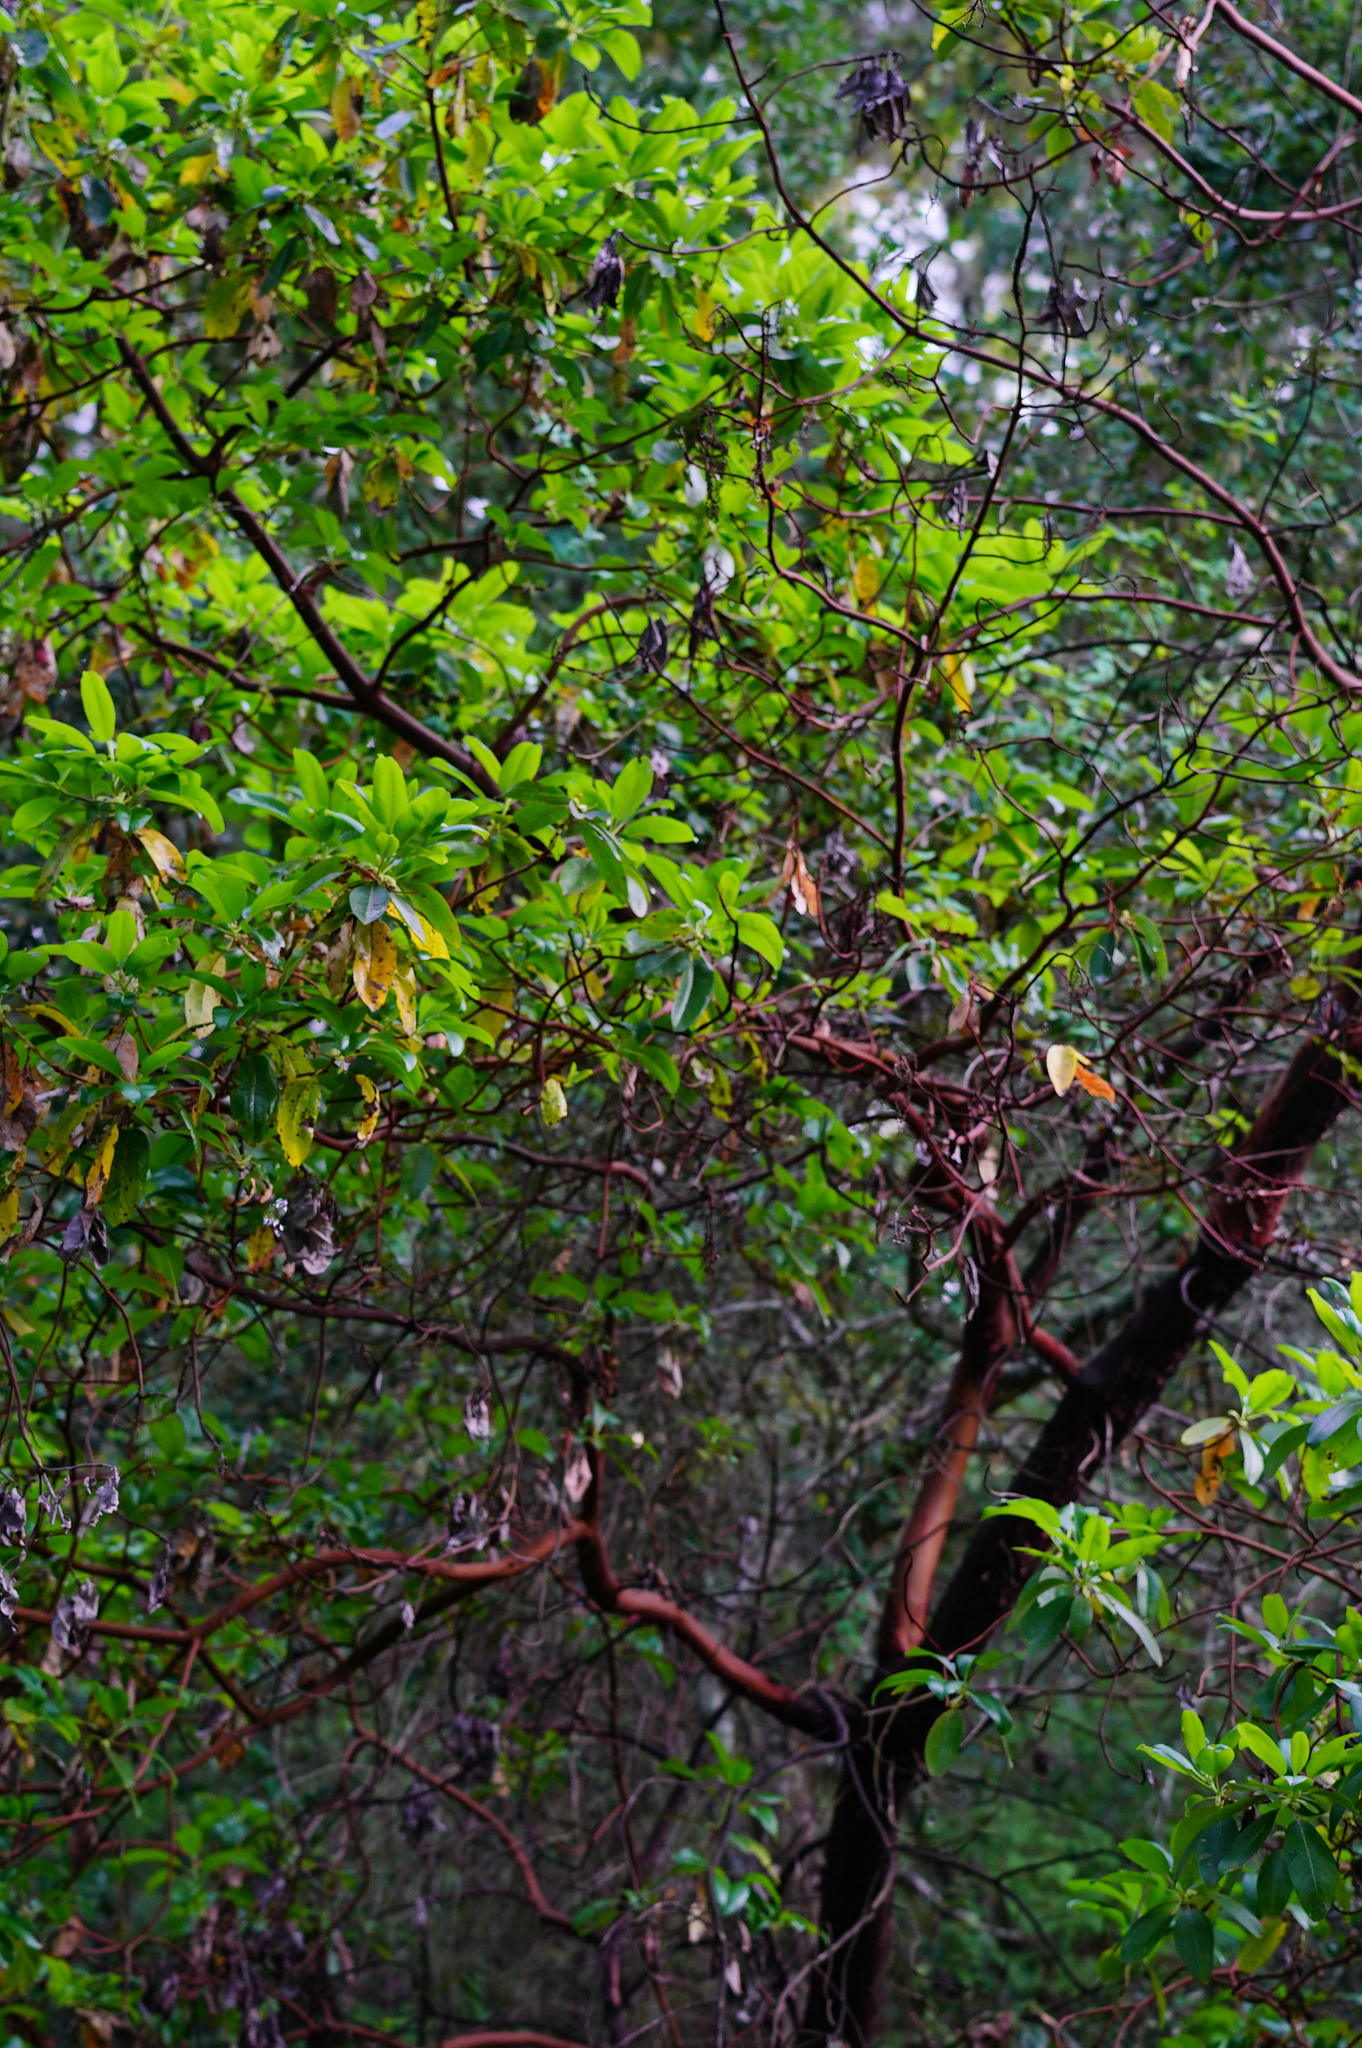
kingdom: Plantae
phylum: Tracheophyta
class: Magnoliopsida
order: Ericales
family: Ericaceae
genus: Arbutus
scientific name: Arbutus menziesii
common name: Pacific madrone
